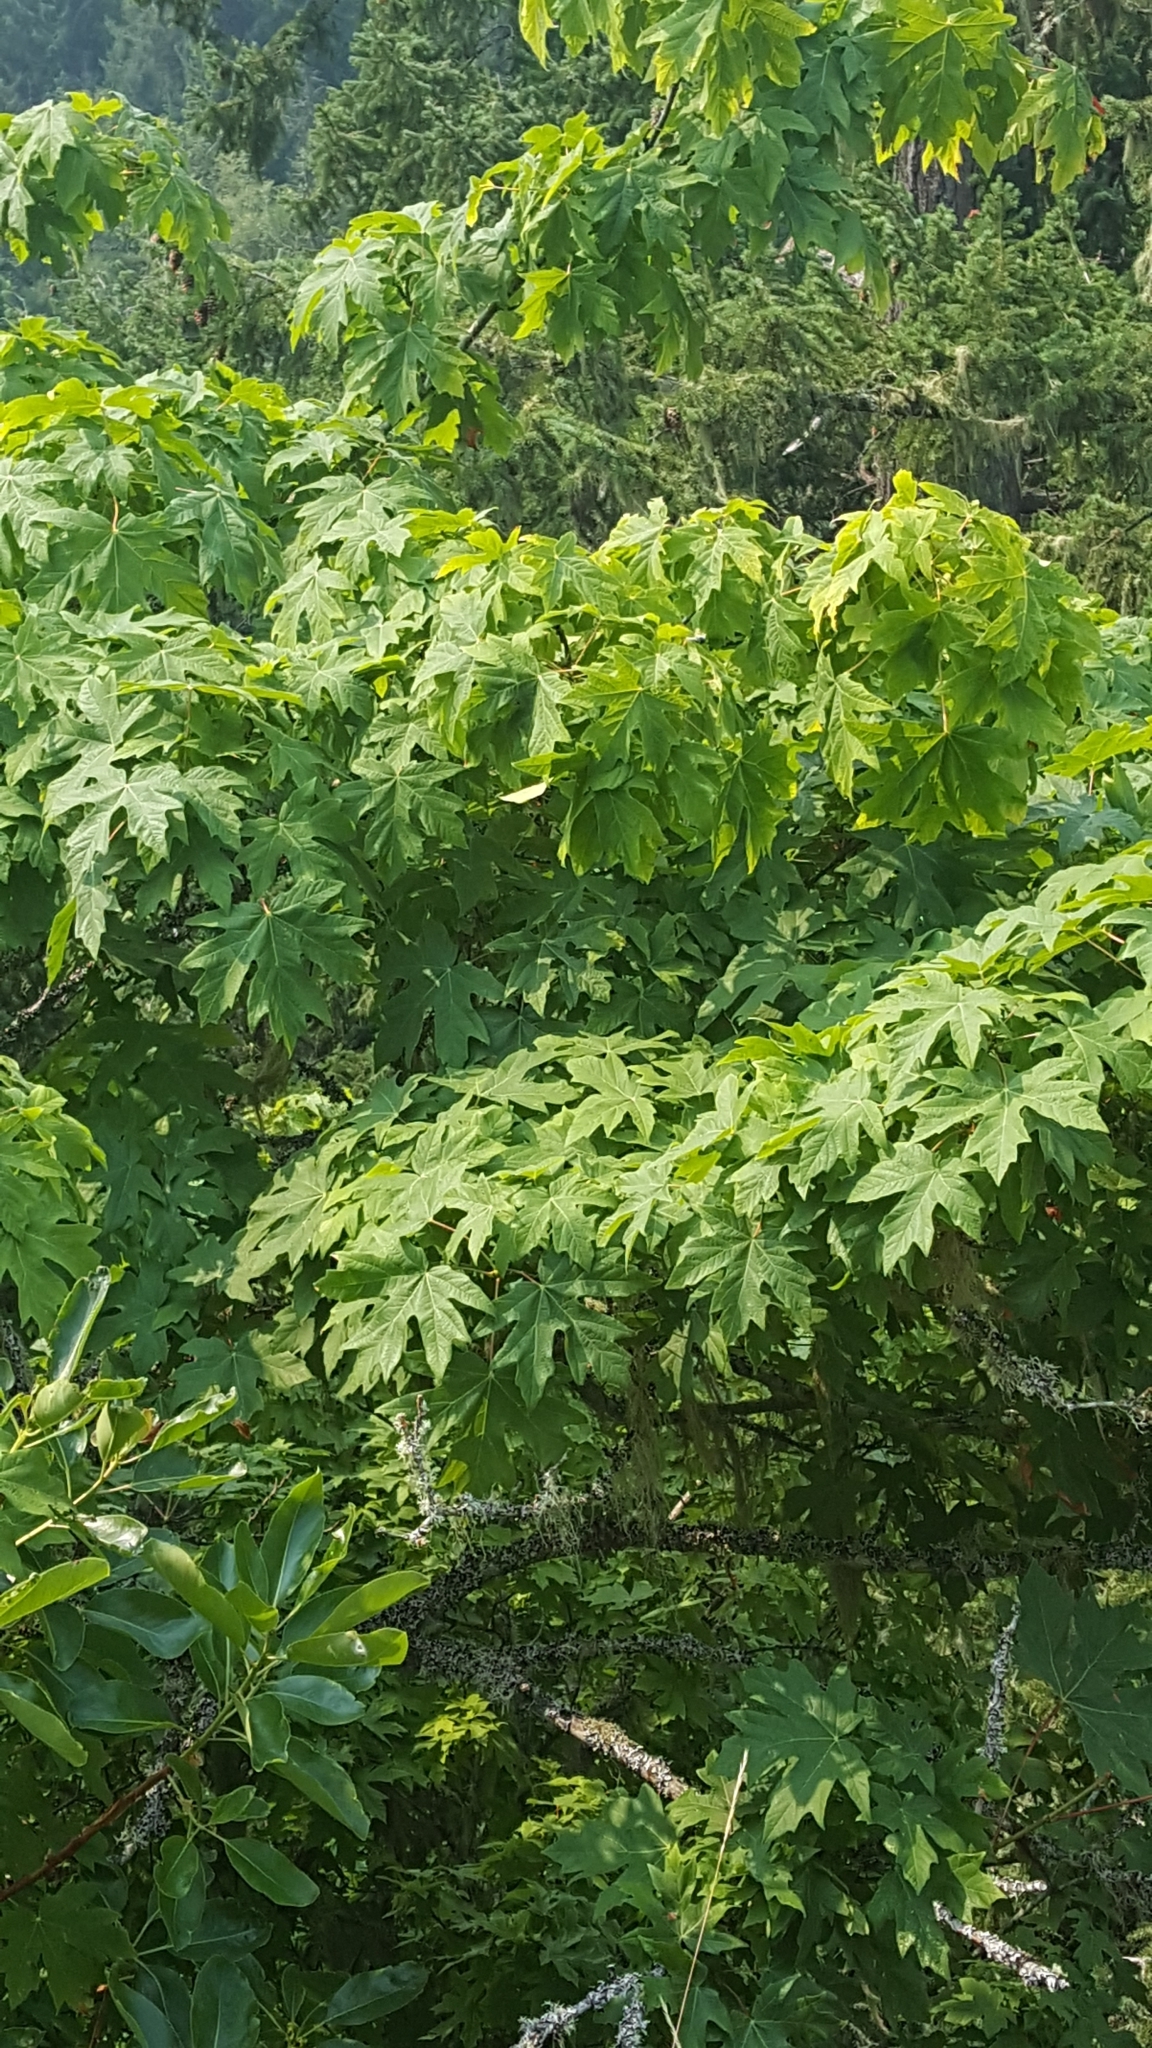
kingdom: Plantae
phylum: Tracheophyta
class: Magnoliopsida
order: Sapindales
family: Sapindaceae
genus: Acer
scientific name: Acer macrophyllum
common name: Oregon maple
